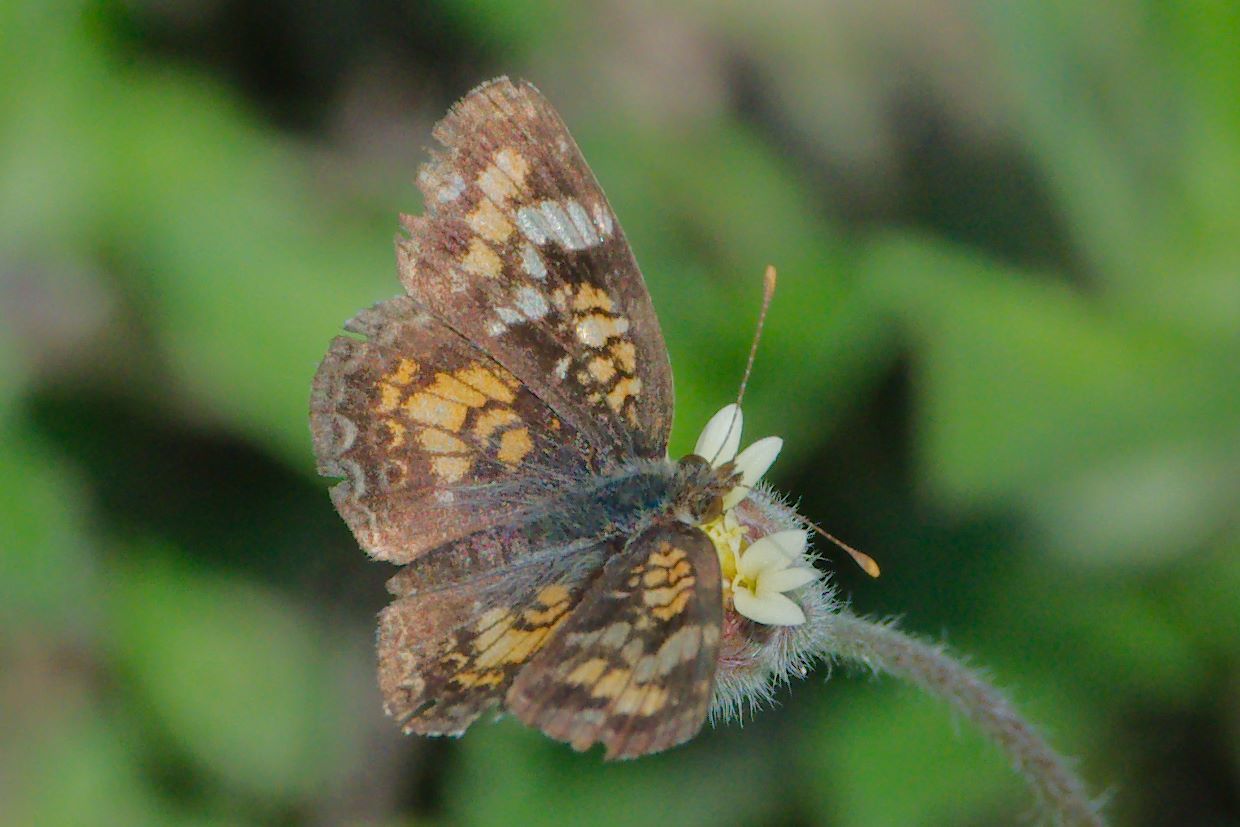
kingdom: Animalia
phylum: Arthropoda
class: Insecta
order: Lepidoptera
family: Nymphalidae
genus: Phyciodes
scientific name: Phyciodes phaon
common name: Phaon crescent
